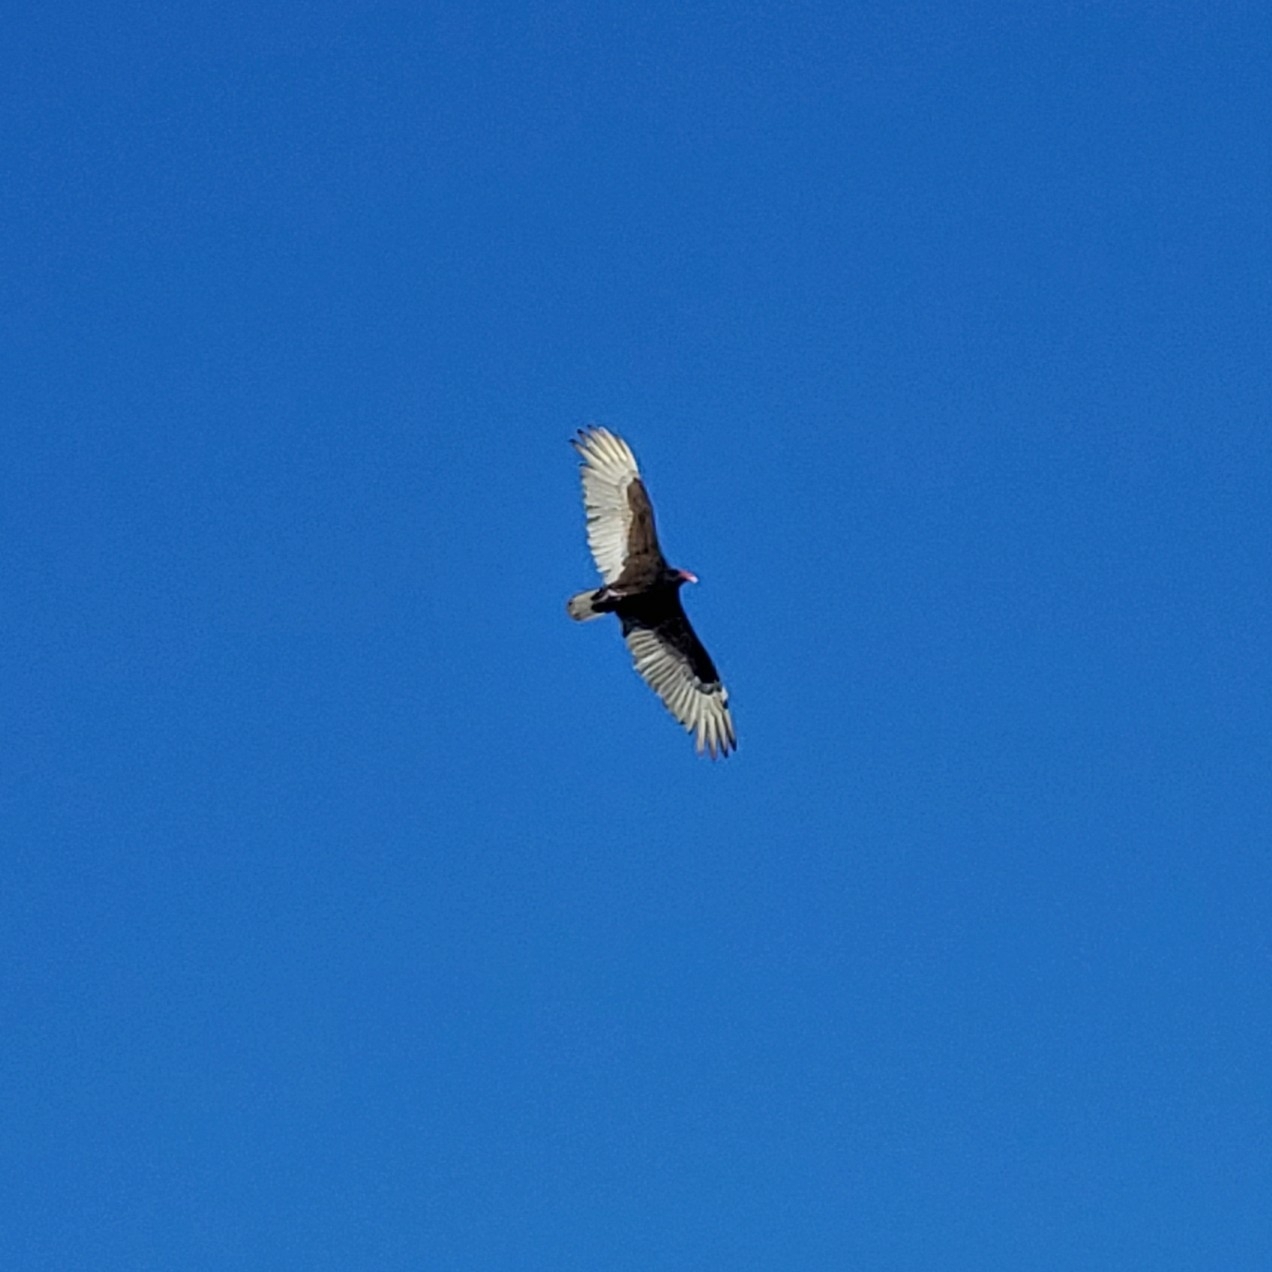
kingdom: Animalia
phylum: Chordata
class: Aves
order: Accipitriformes
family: Cathartidae
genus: Cathartes
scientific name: Cathartes aura
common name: Turkey vulture
